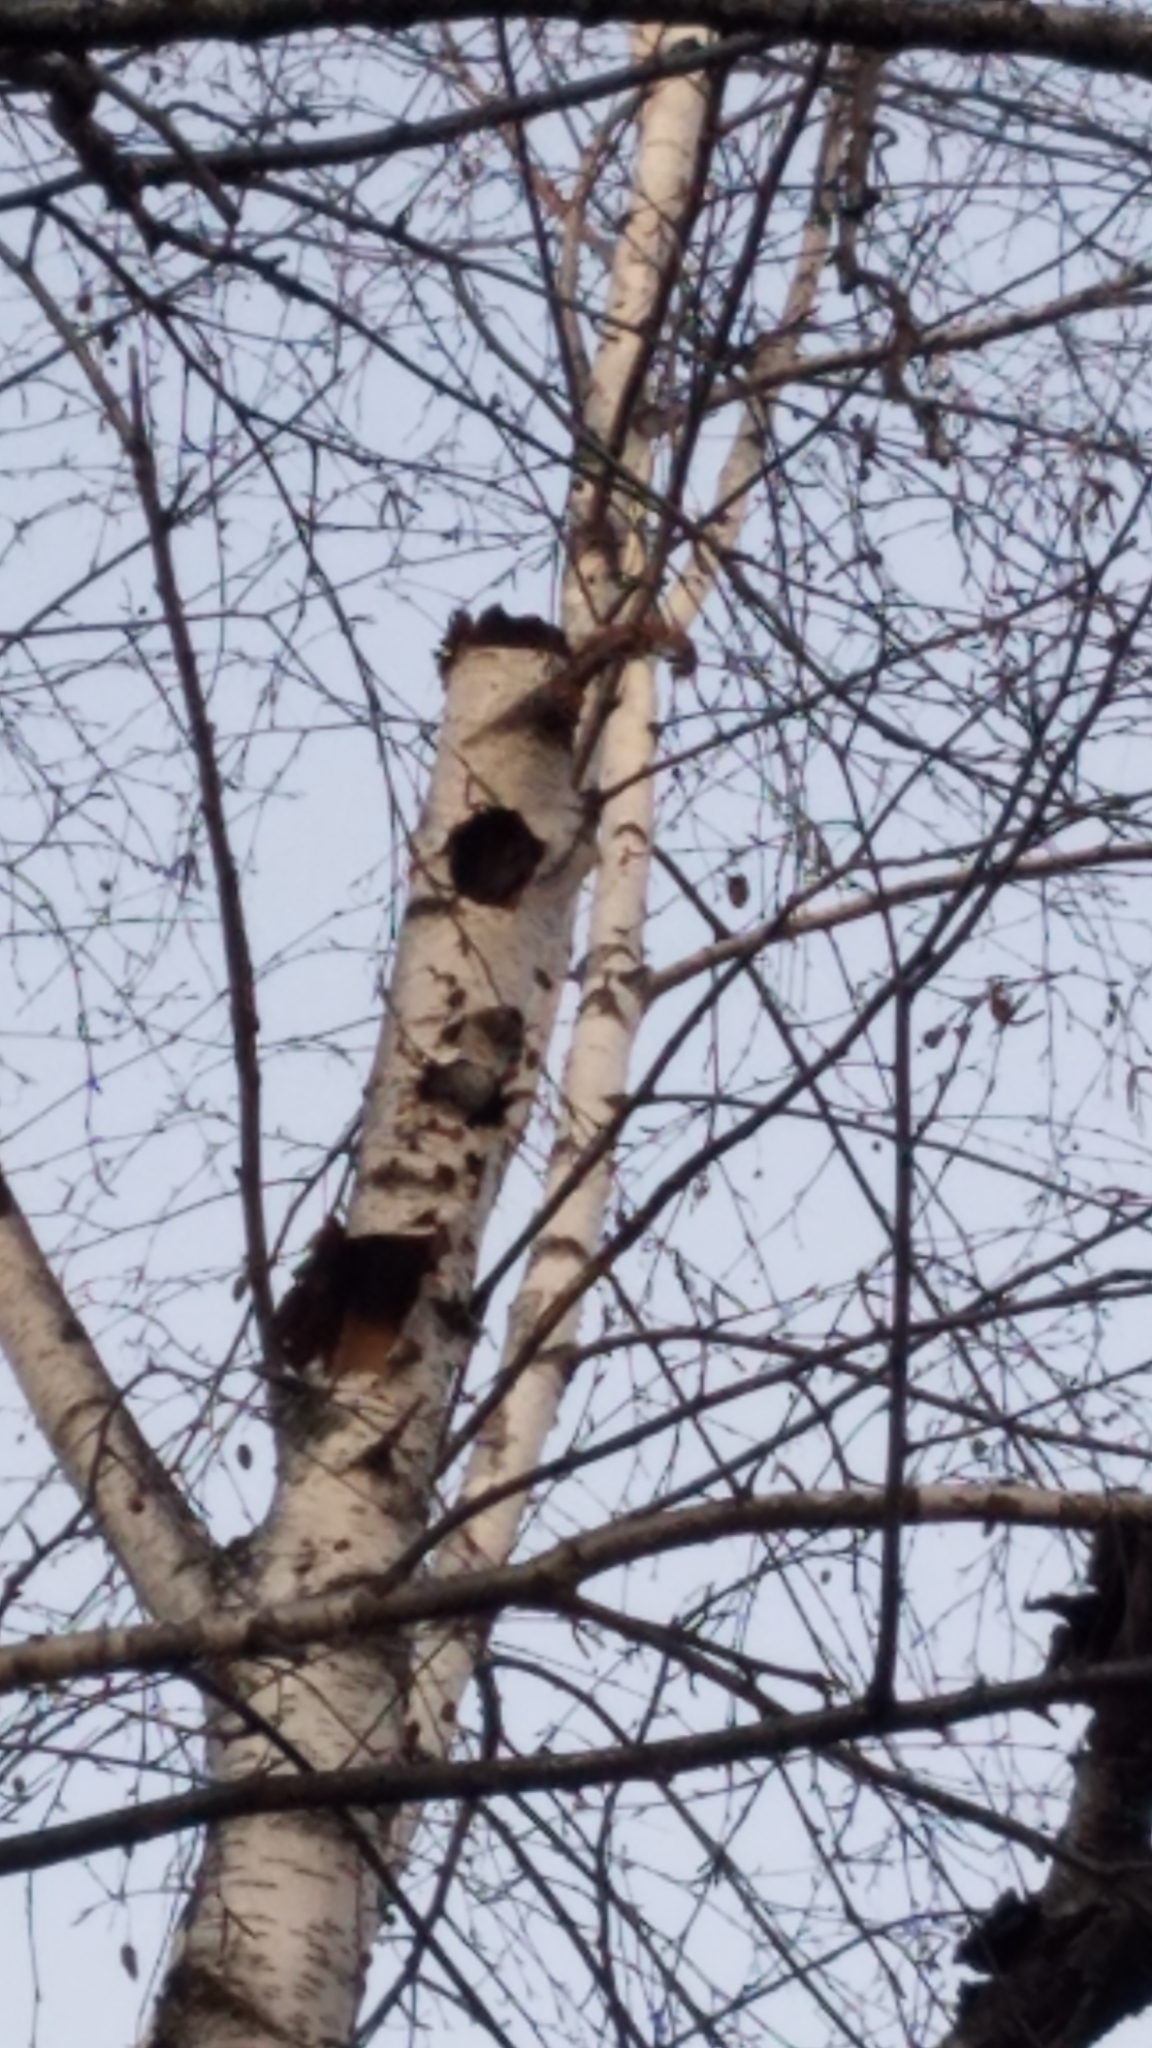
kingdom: Animalia
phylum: Chordata
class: Aves
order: Piciformes
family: Picidae
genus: Colaptes
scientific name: Colaptes auratus
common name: Northern flicker
